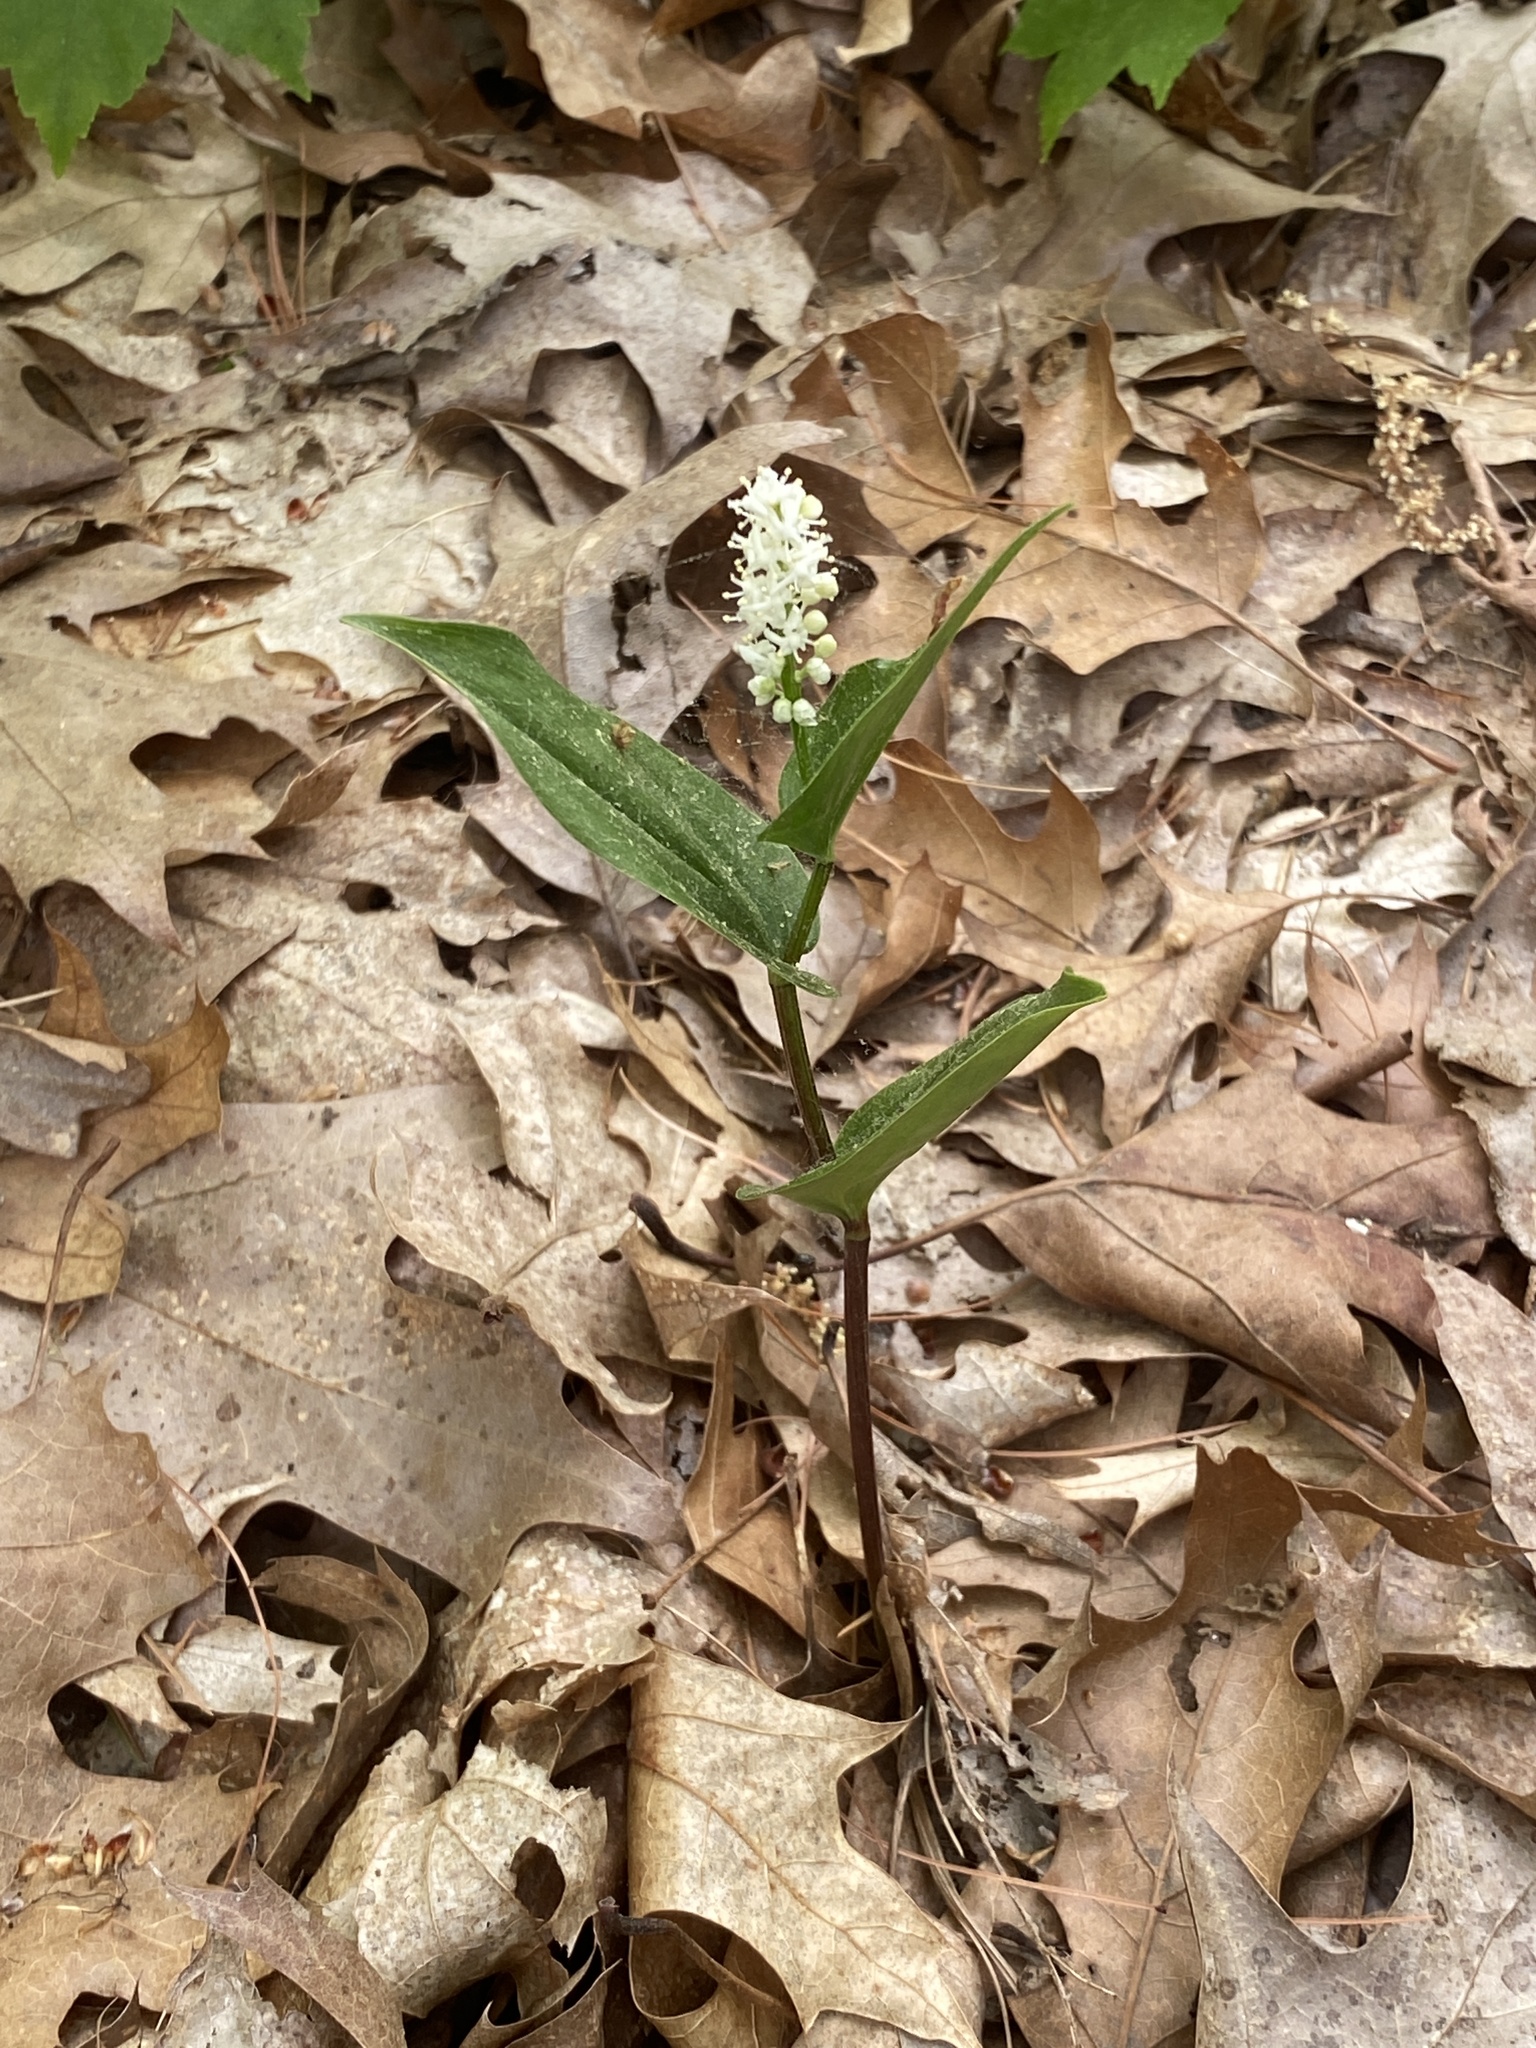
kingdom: Plantae
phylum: Tracheophyta
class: Liliopsida
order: Asparagales
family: Asparagaceae
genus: Maianthemum
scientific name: Maianthemum canadense
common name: False lily-of-the-valley
